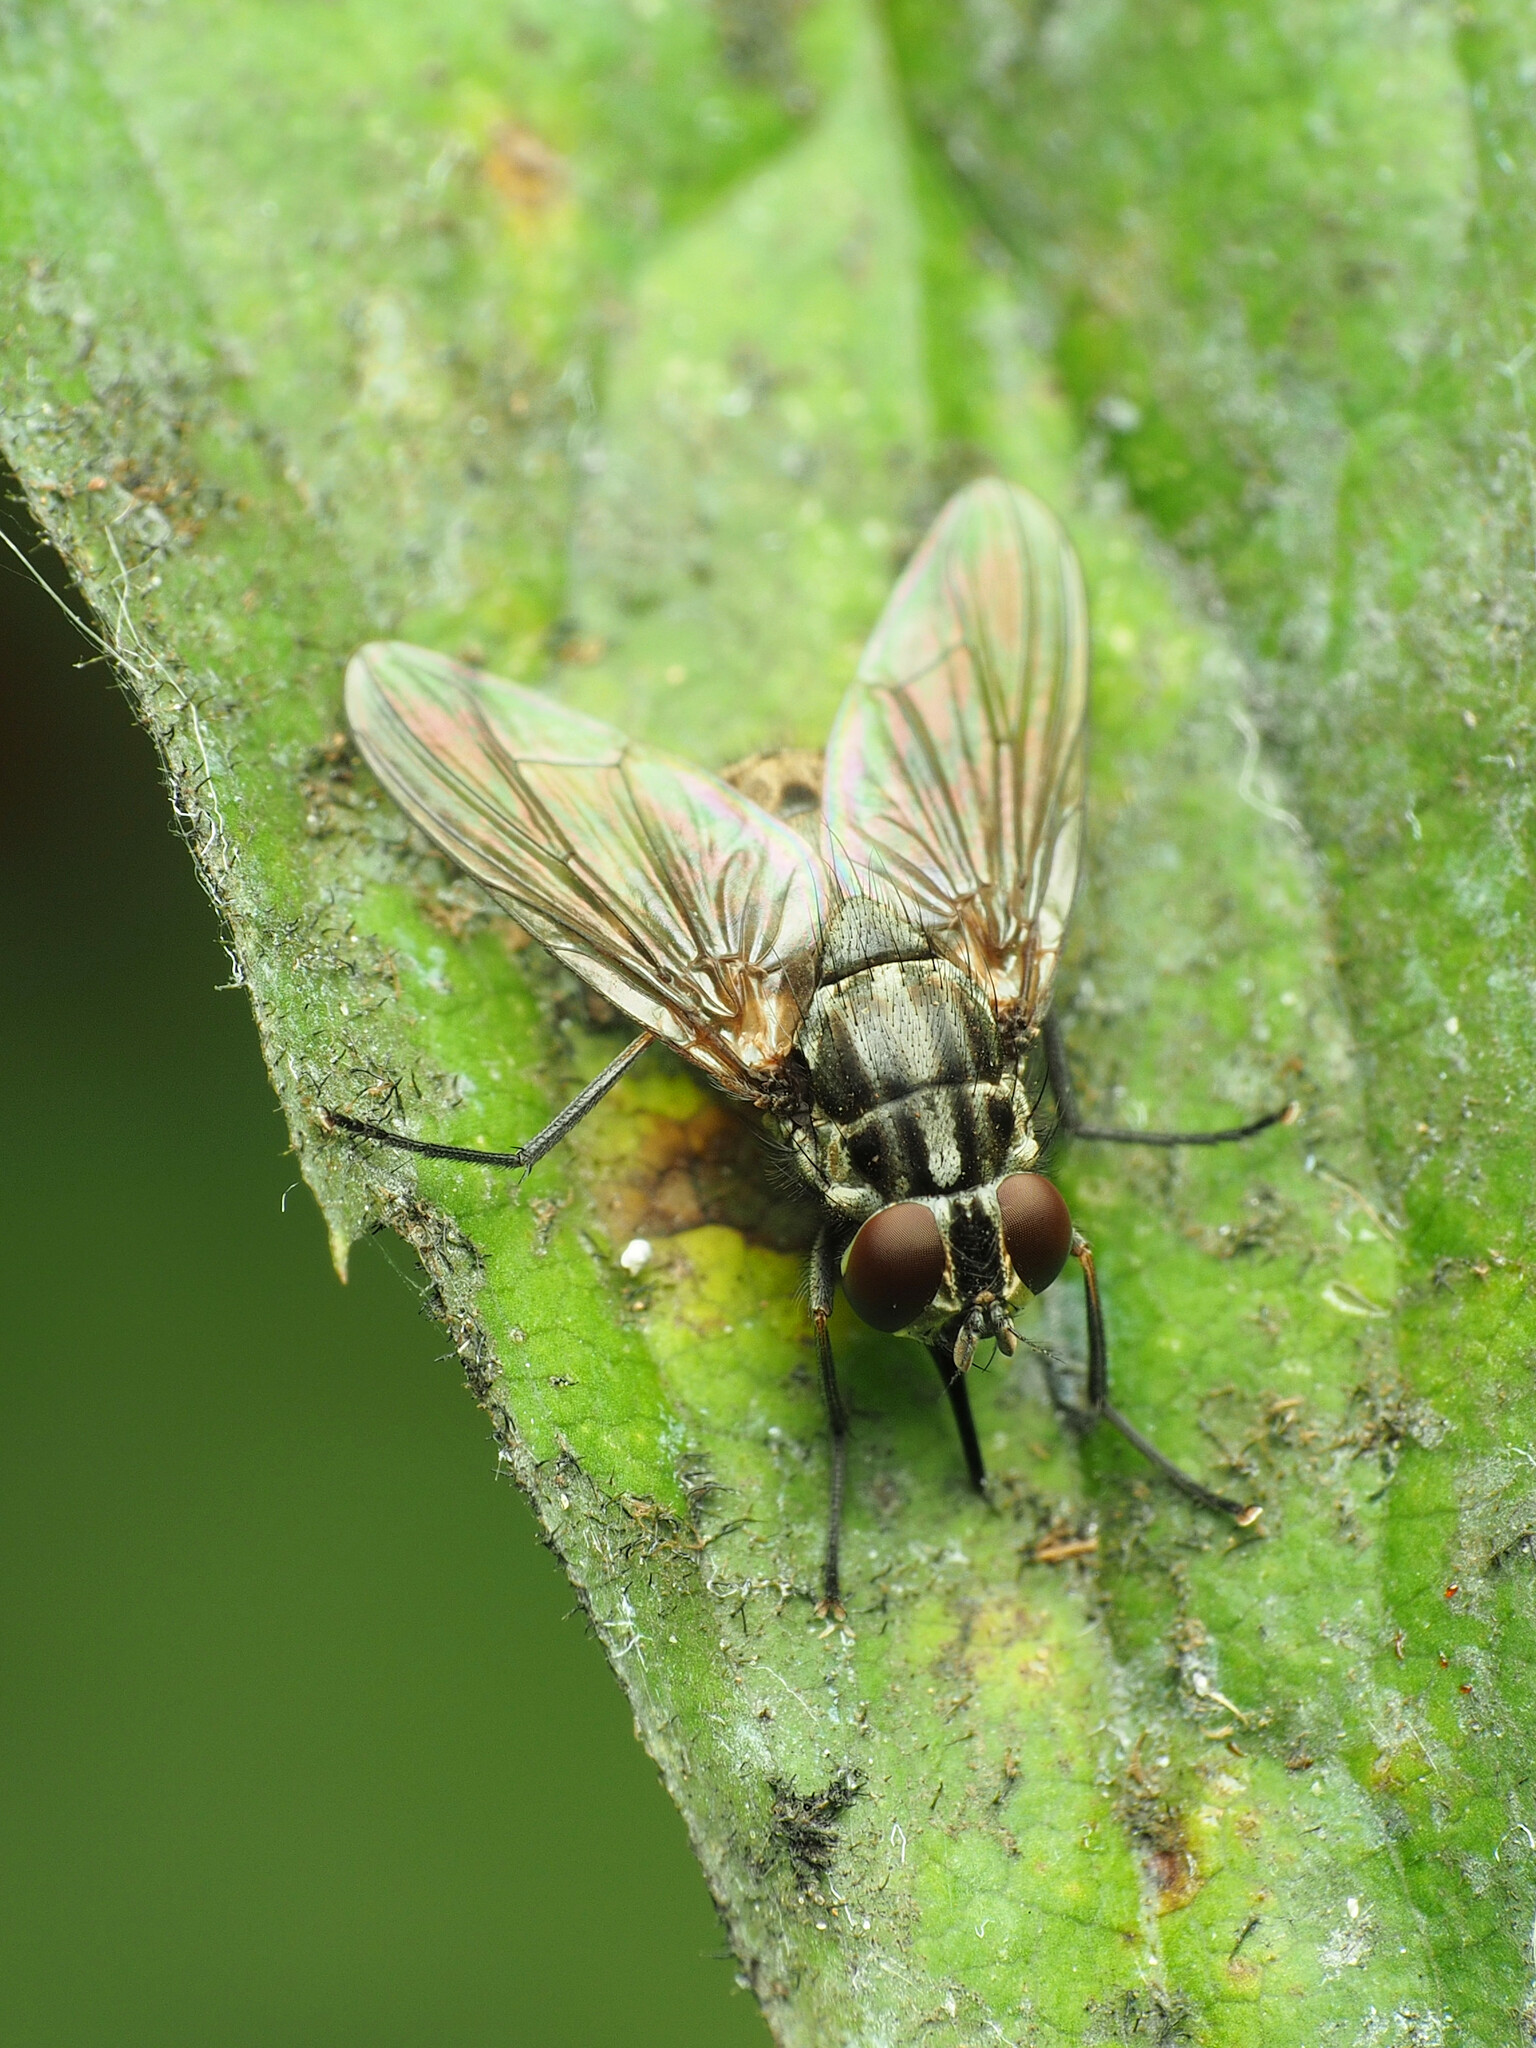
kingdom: Animalia
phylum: Arthropoda
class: Insecta
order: Diptera
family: Muscidae
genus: Stomoxys
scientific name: Stomoxys calcitrans
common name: Stable fly
